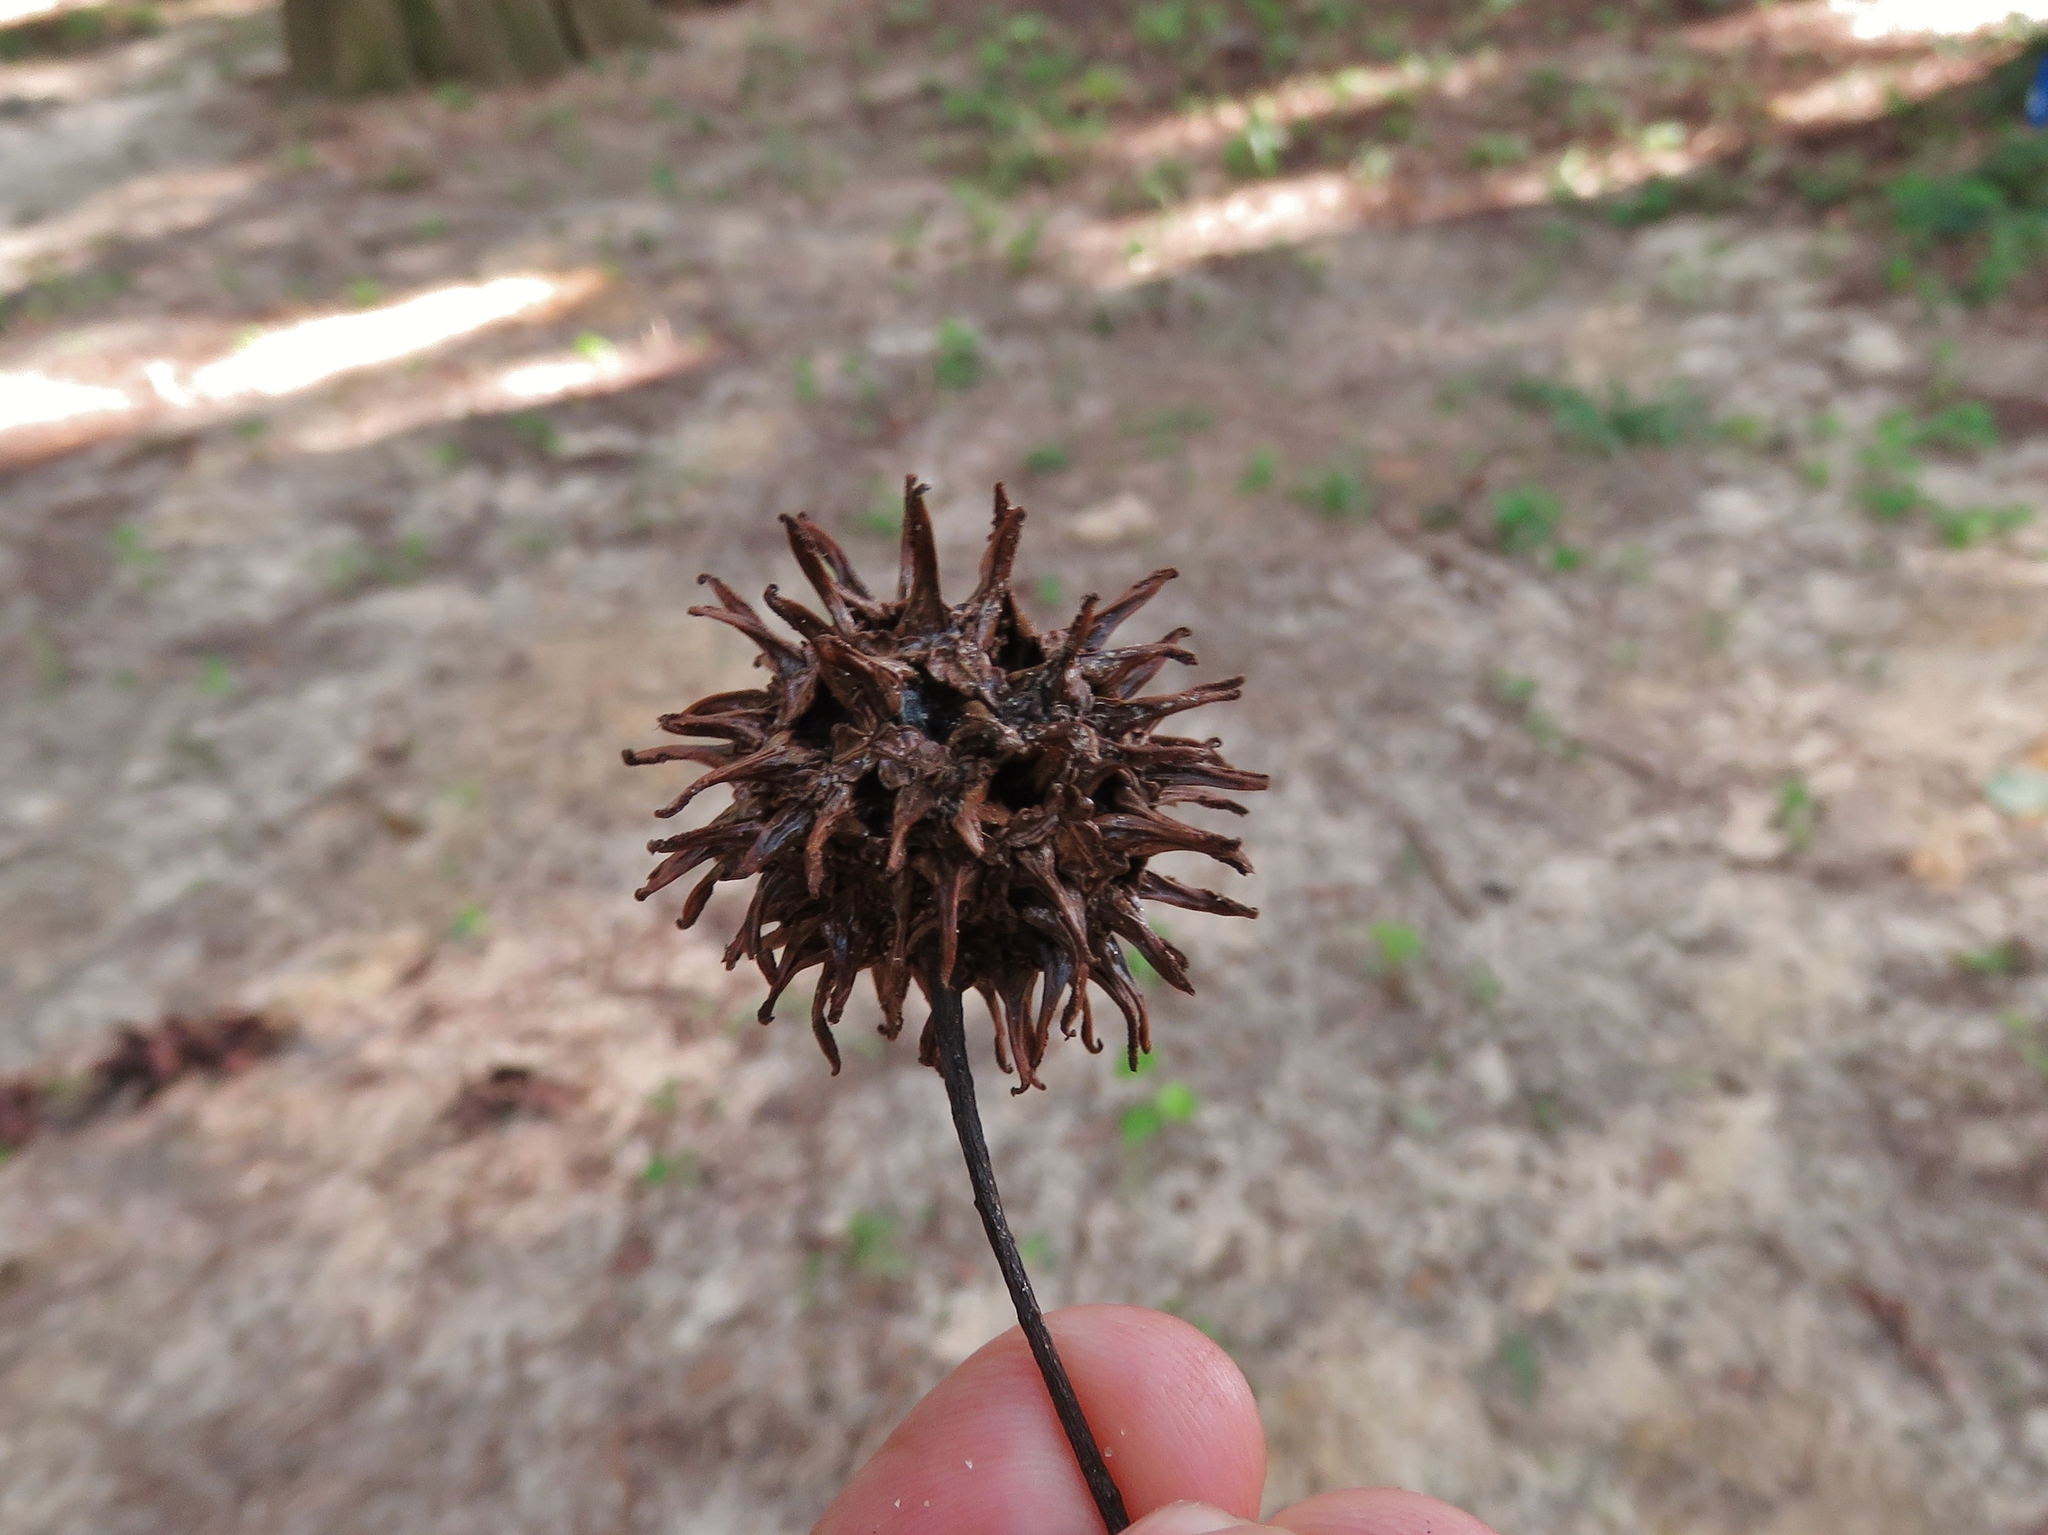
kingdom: Plantae
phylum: Tracheophyta
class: Magnoliopsida
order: Saxifragales
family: Altingiaceae
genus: Liquidambar
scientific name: Liquidambar styraciflua
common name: Sweet gum
